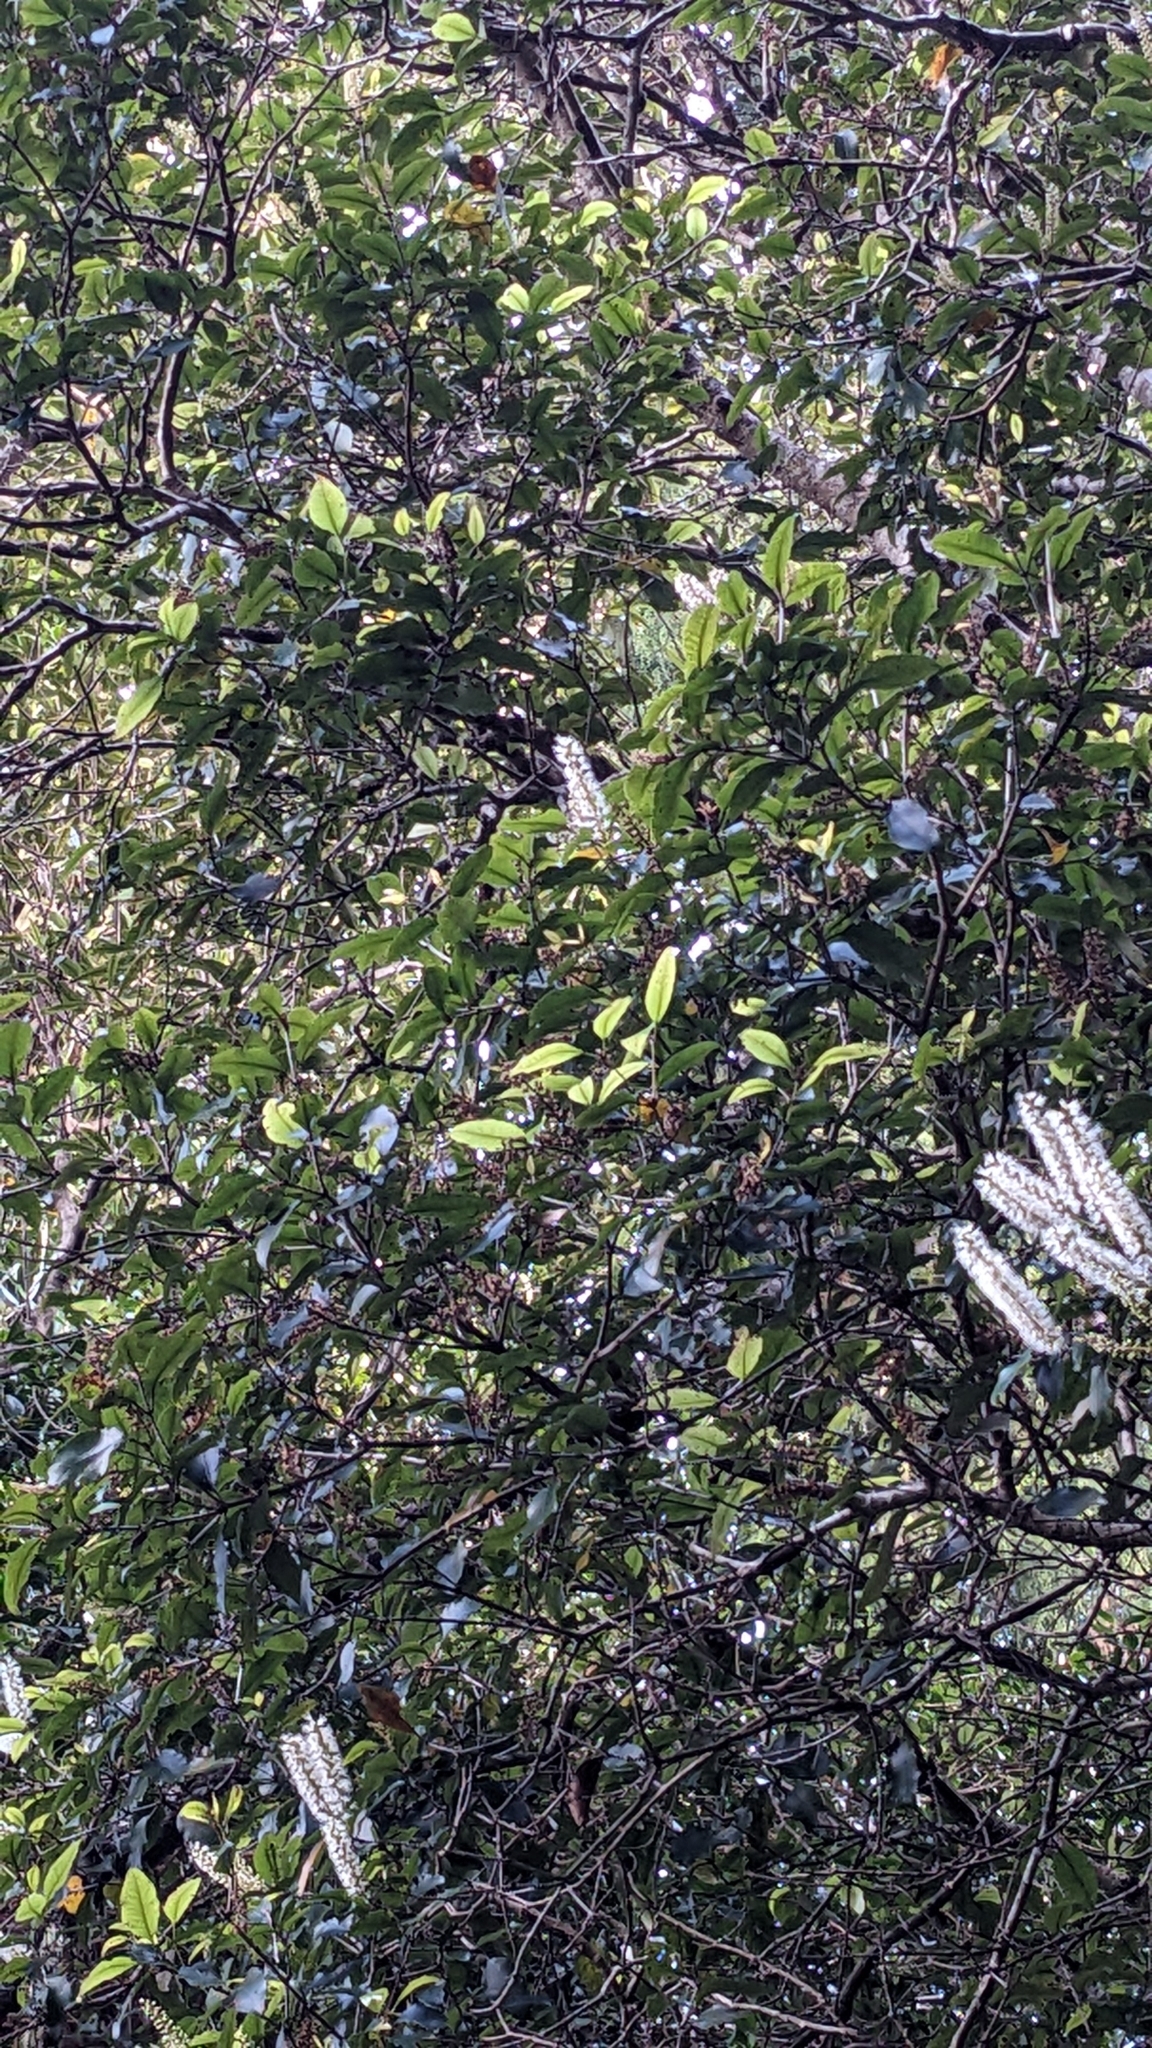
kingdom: Plantae
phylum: Tracheophyta
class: Magnoliopsida
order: Oxalidales
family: Cunoniaceae
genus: Pterophylla
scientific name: Pterophylla racemosa
